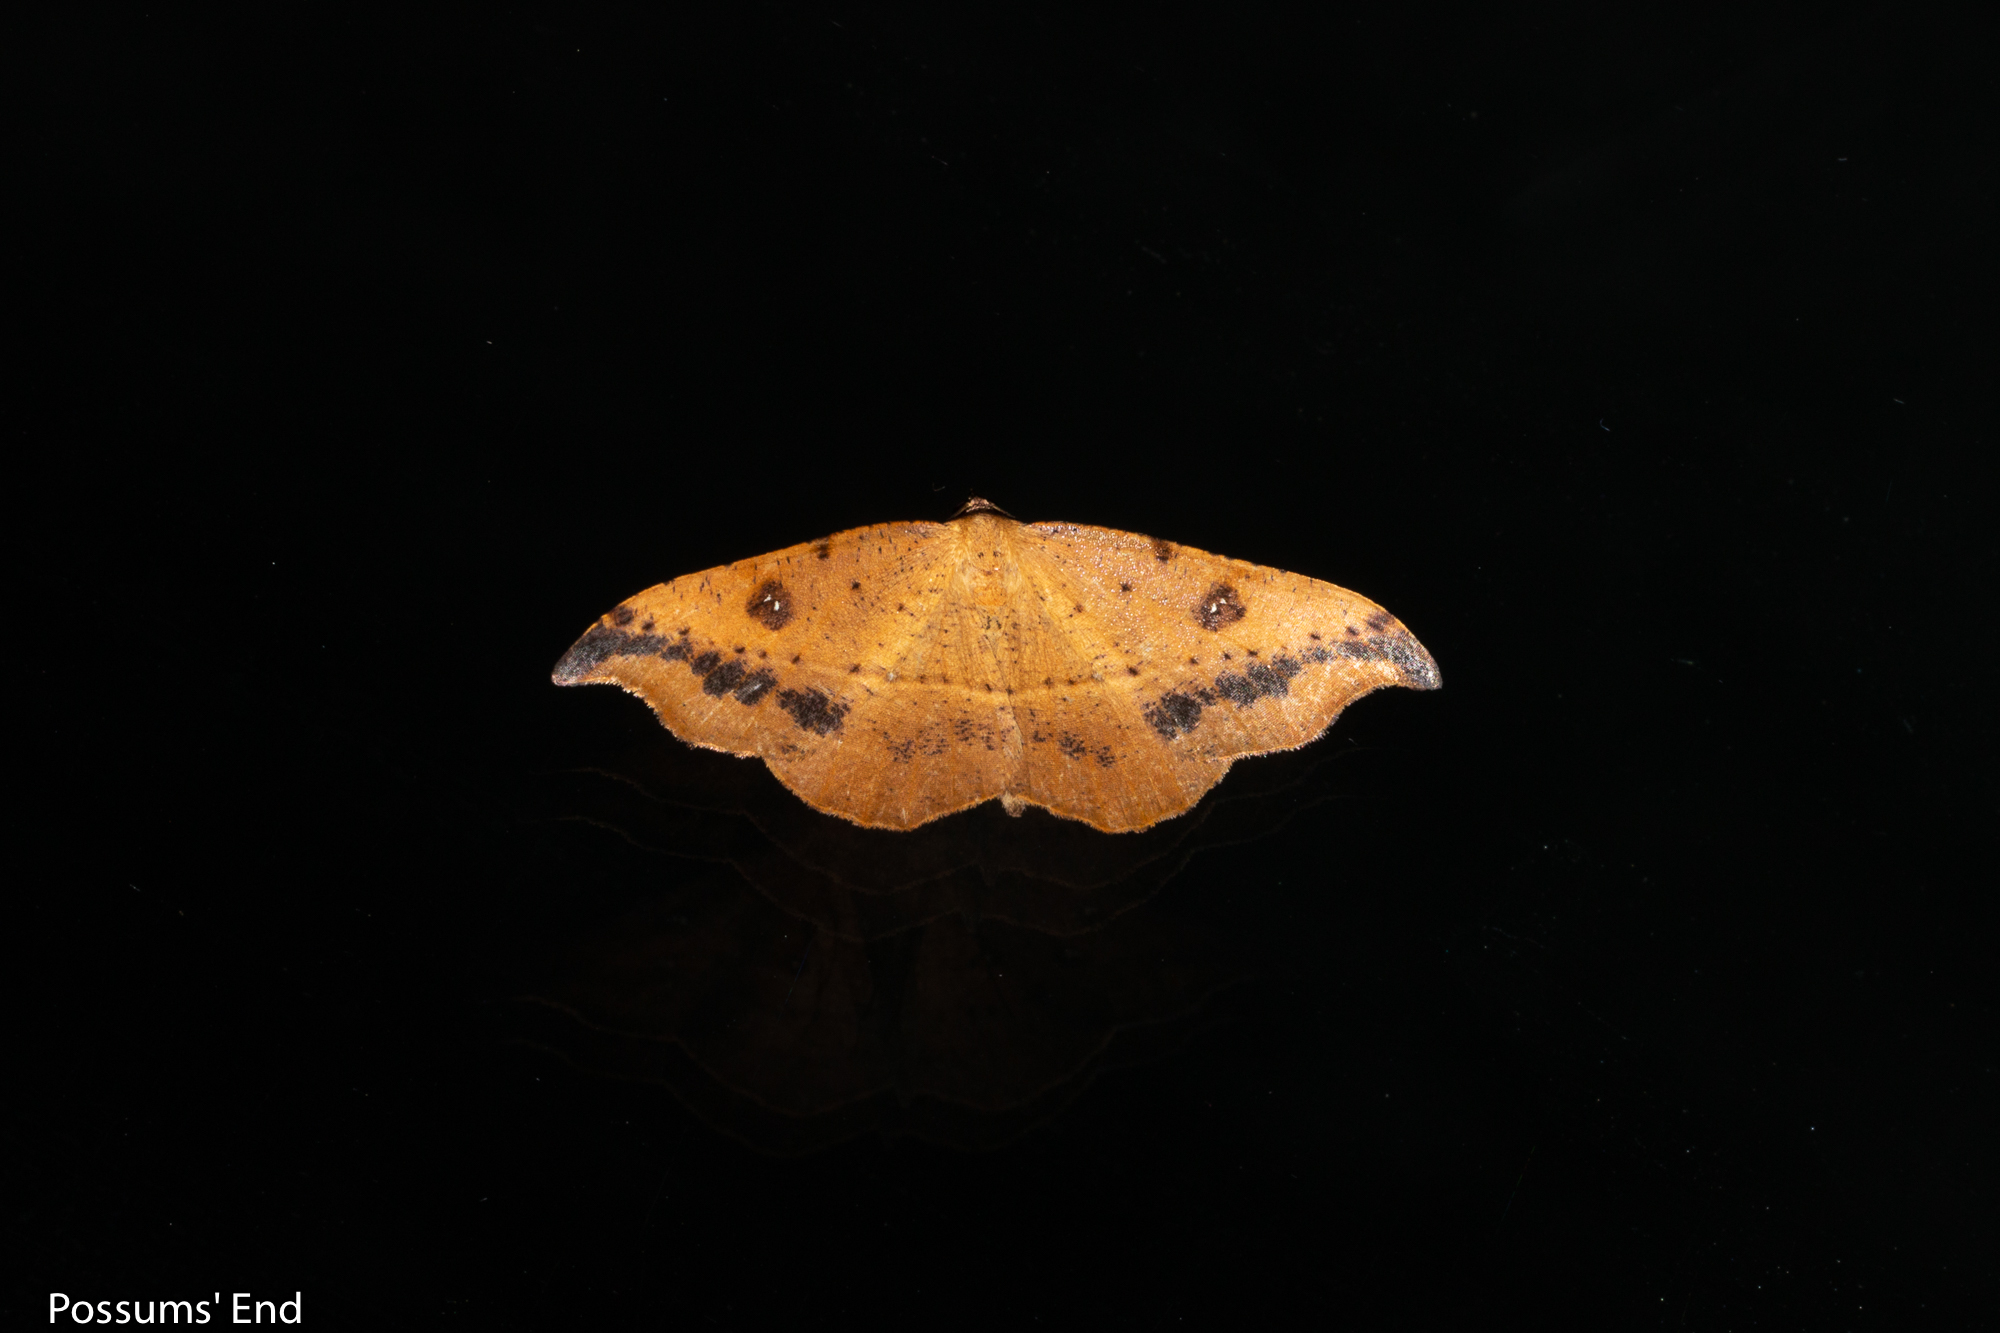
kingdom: Animalia
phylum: Arthropoda
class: Insecta
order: Lepidoptera
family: Geometridae
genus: Sarisa
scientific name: Sarisa muriferata
